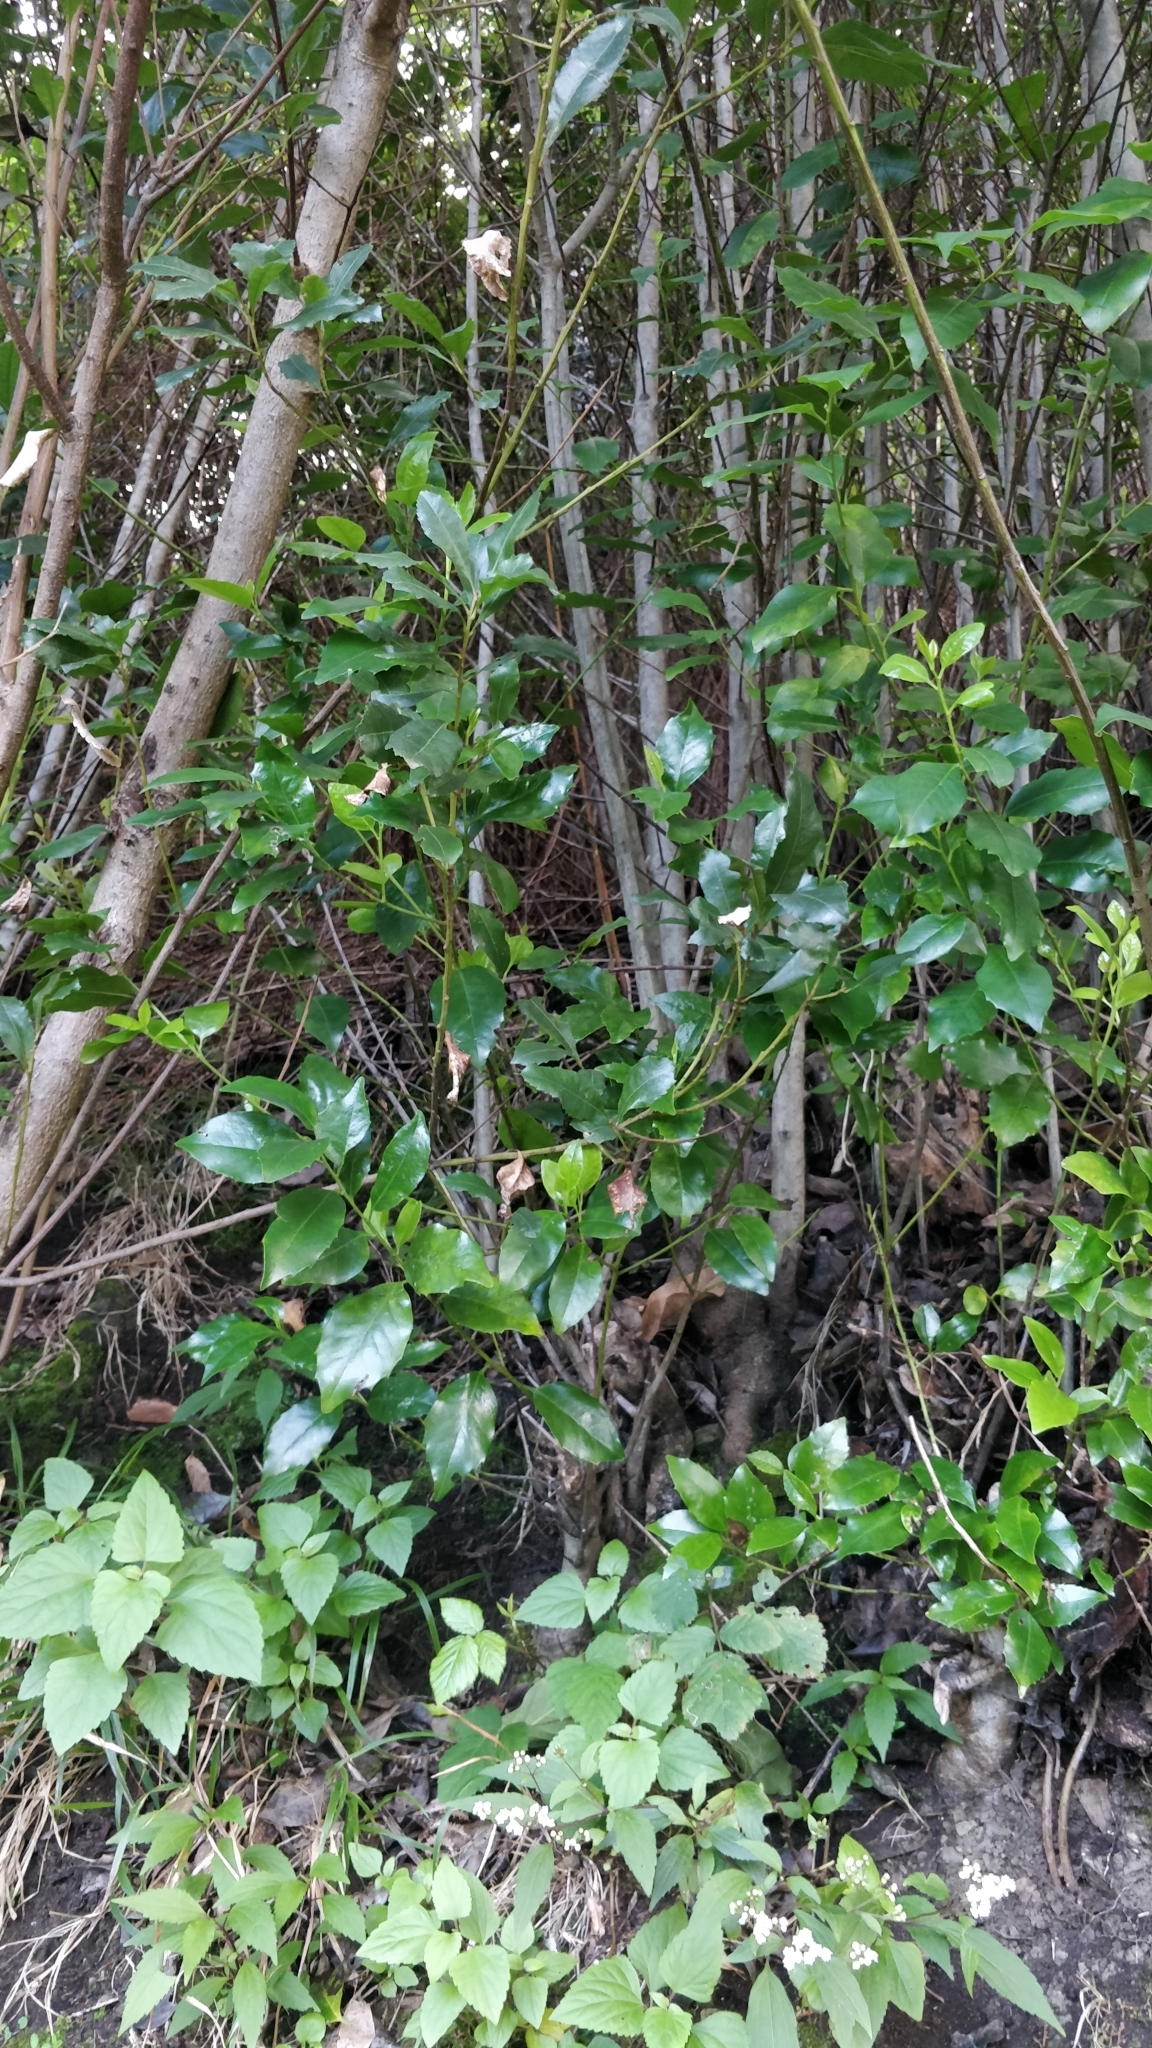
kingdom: Plantae
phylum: Tracheophyta
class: Magnoliopsida
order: Aquifoliales
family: Aquifoliaceae
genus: Ilex
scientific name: Ilex canariensis
